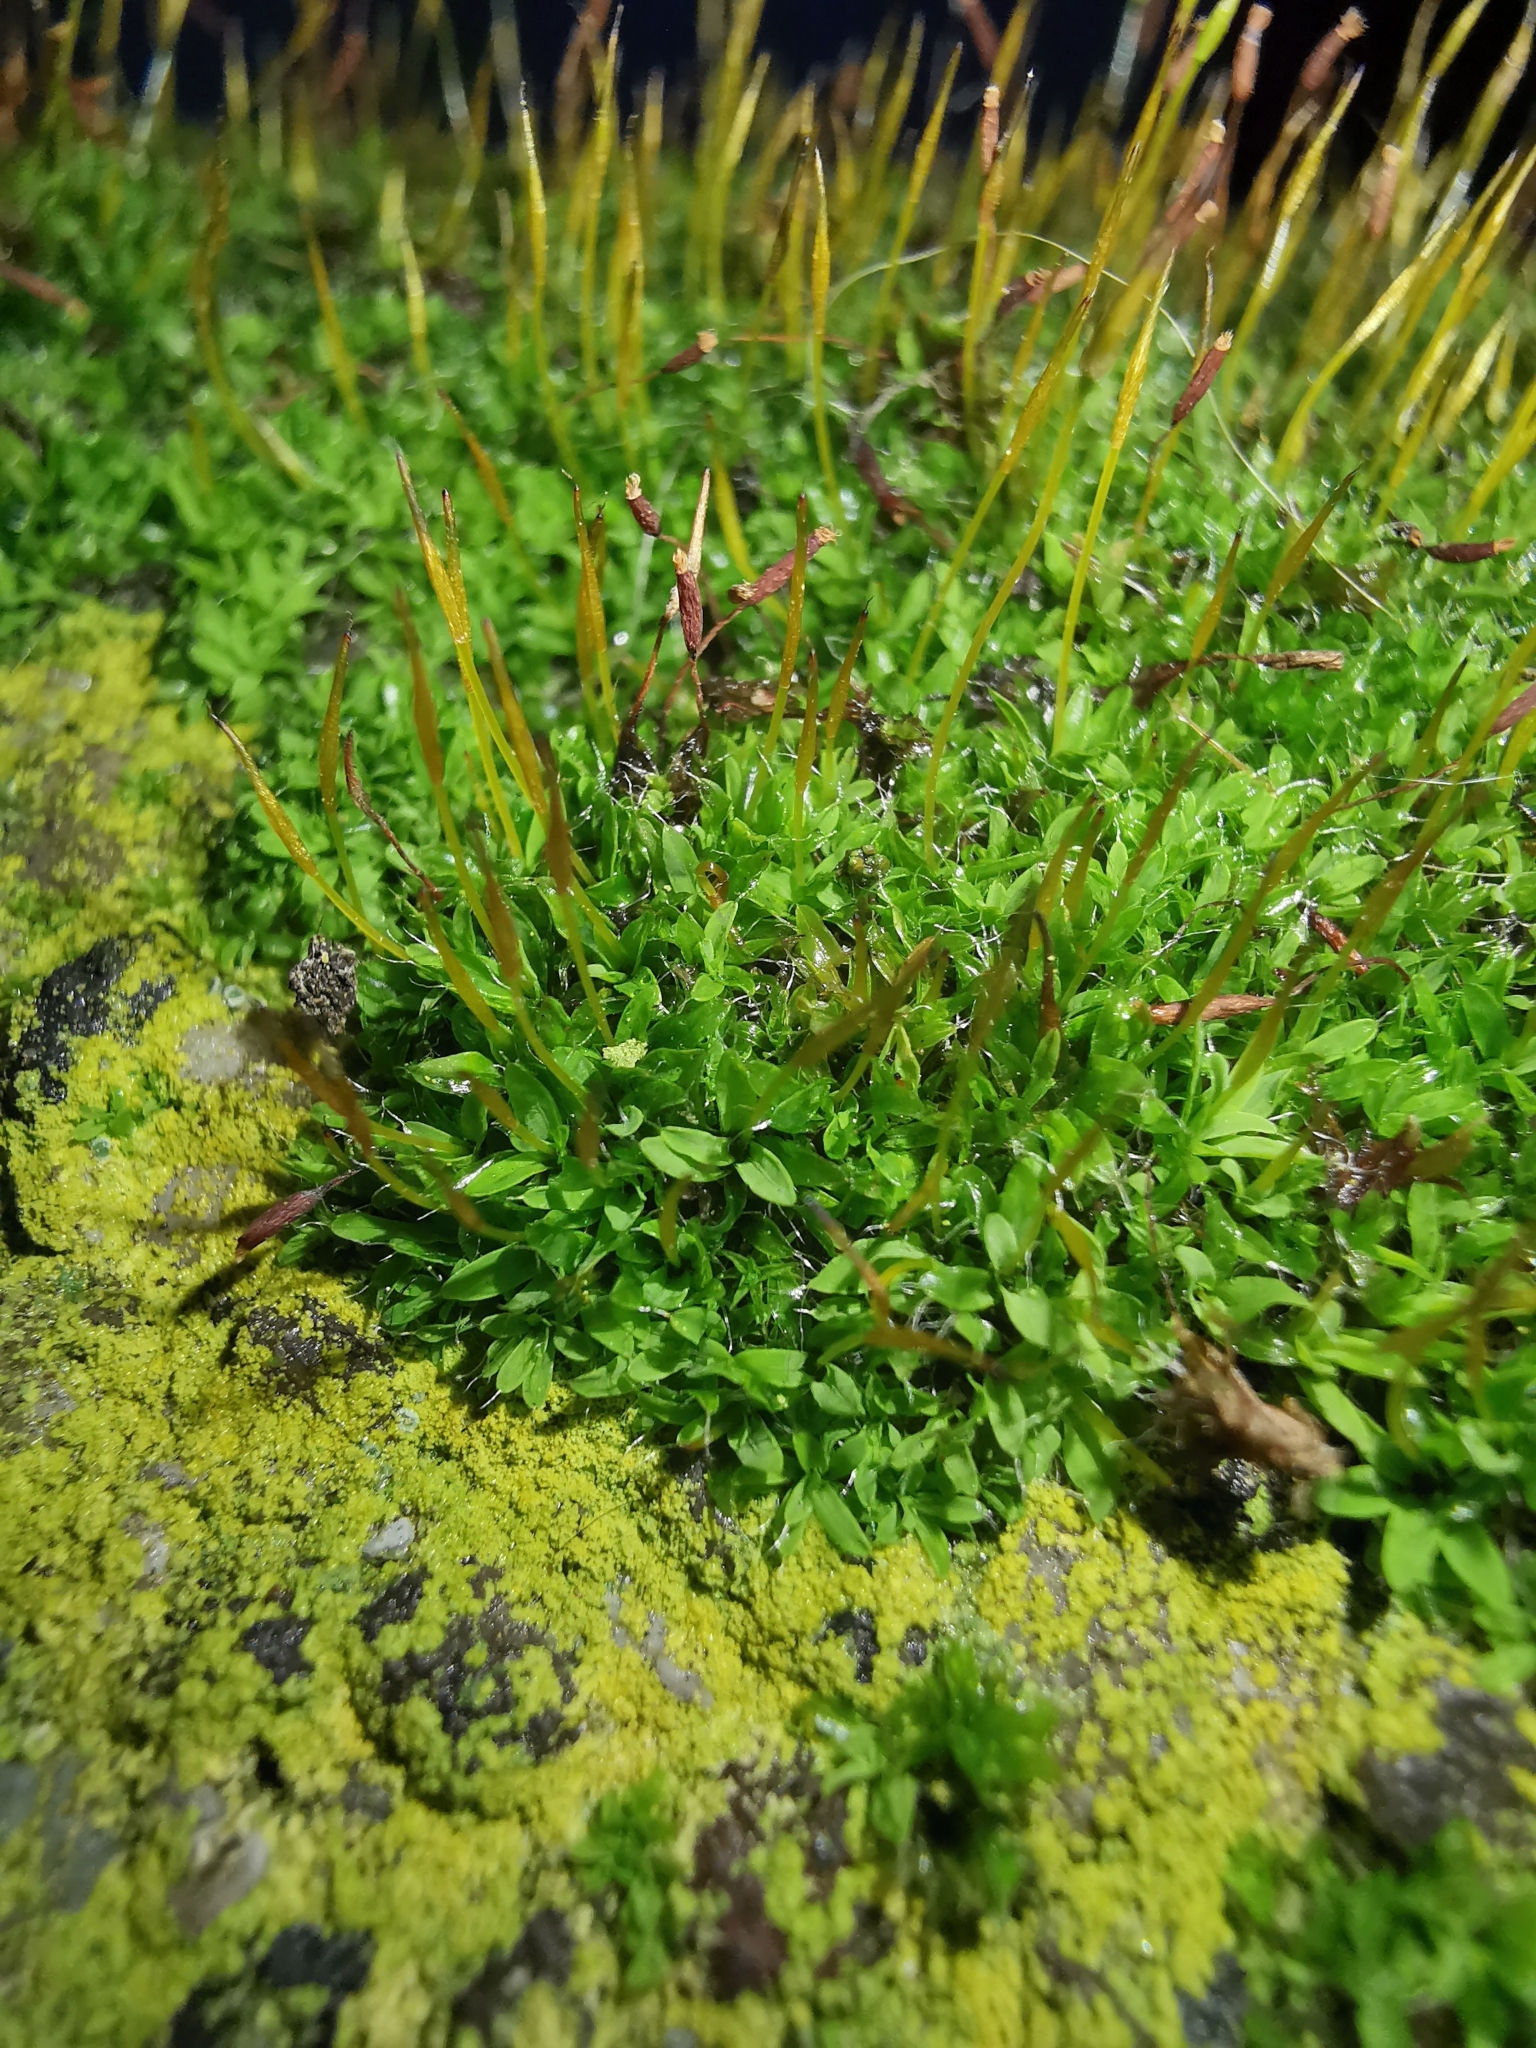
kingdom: Plantae
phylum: Bryophyta
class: Bryopsida
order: Pottiales
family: Pottiaceae
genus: Tortula
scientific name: Tortula muralis
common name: Wall screw-moss
